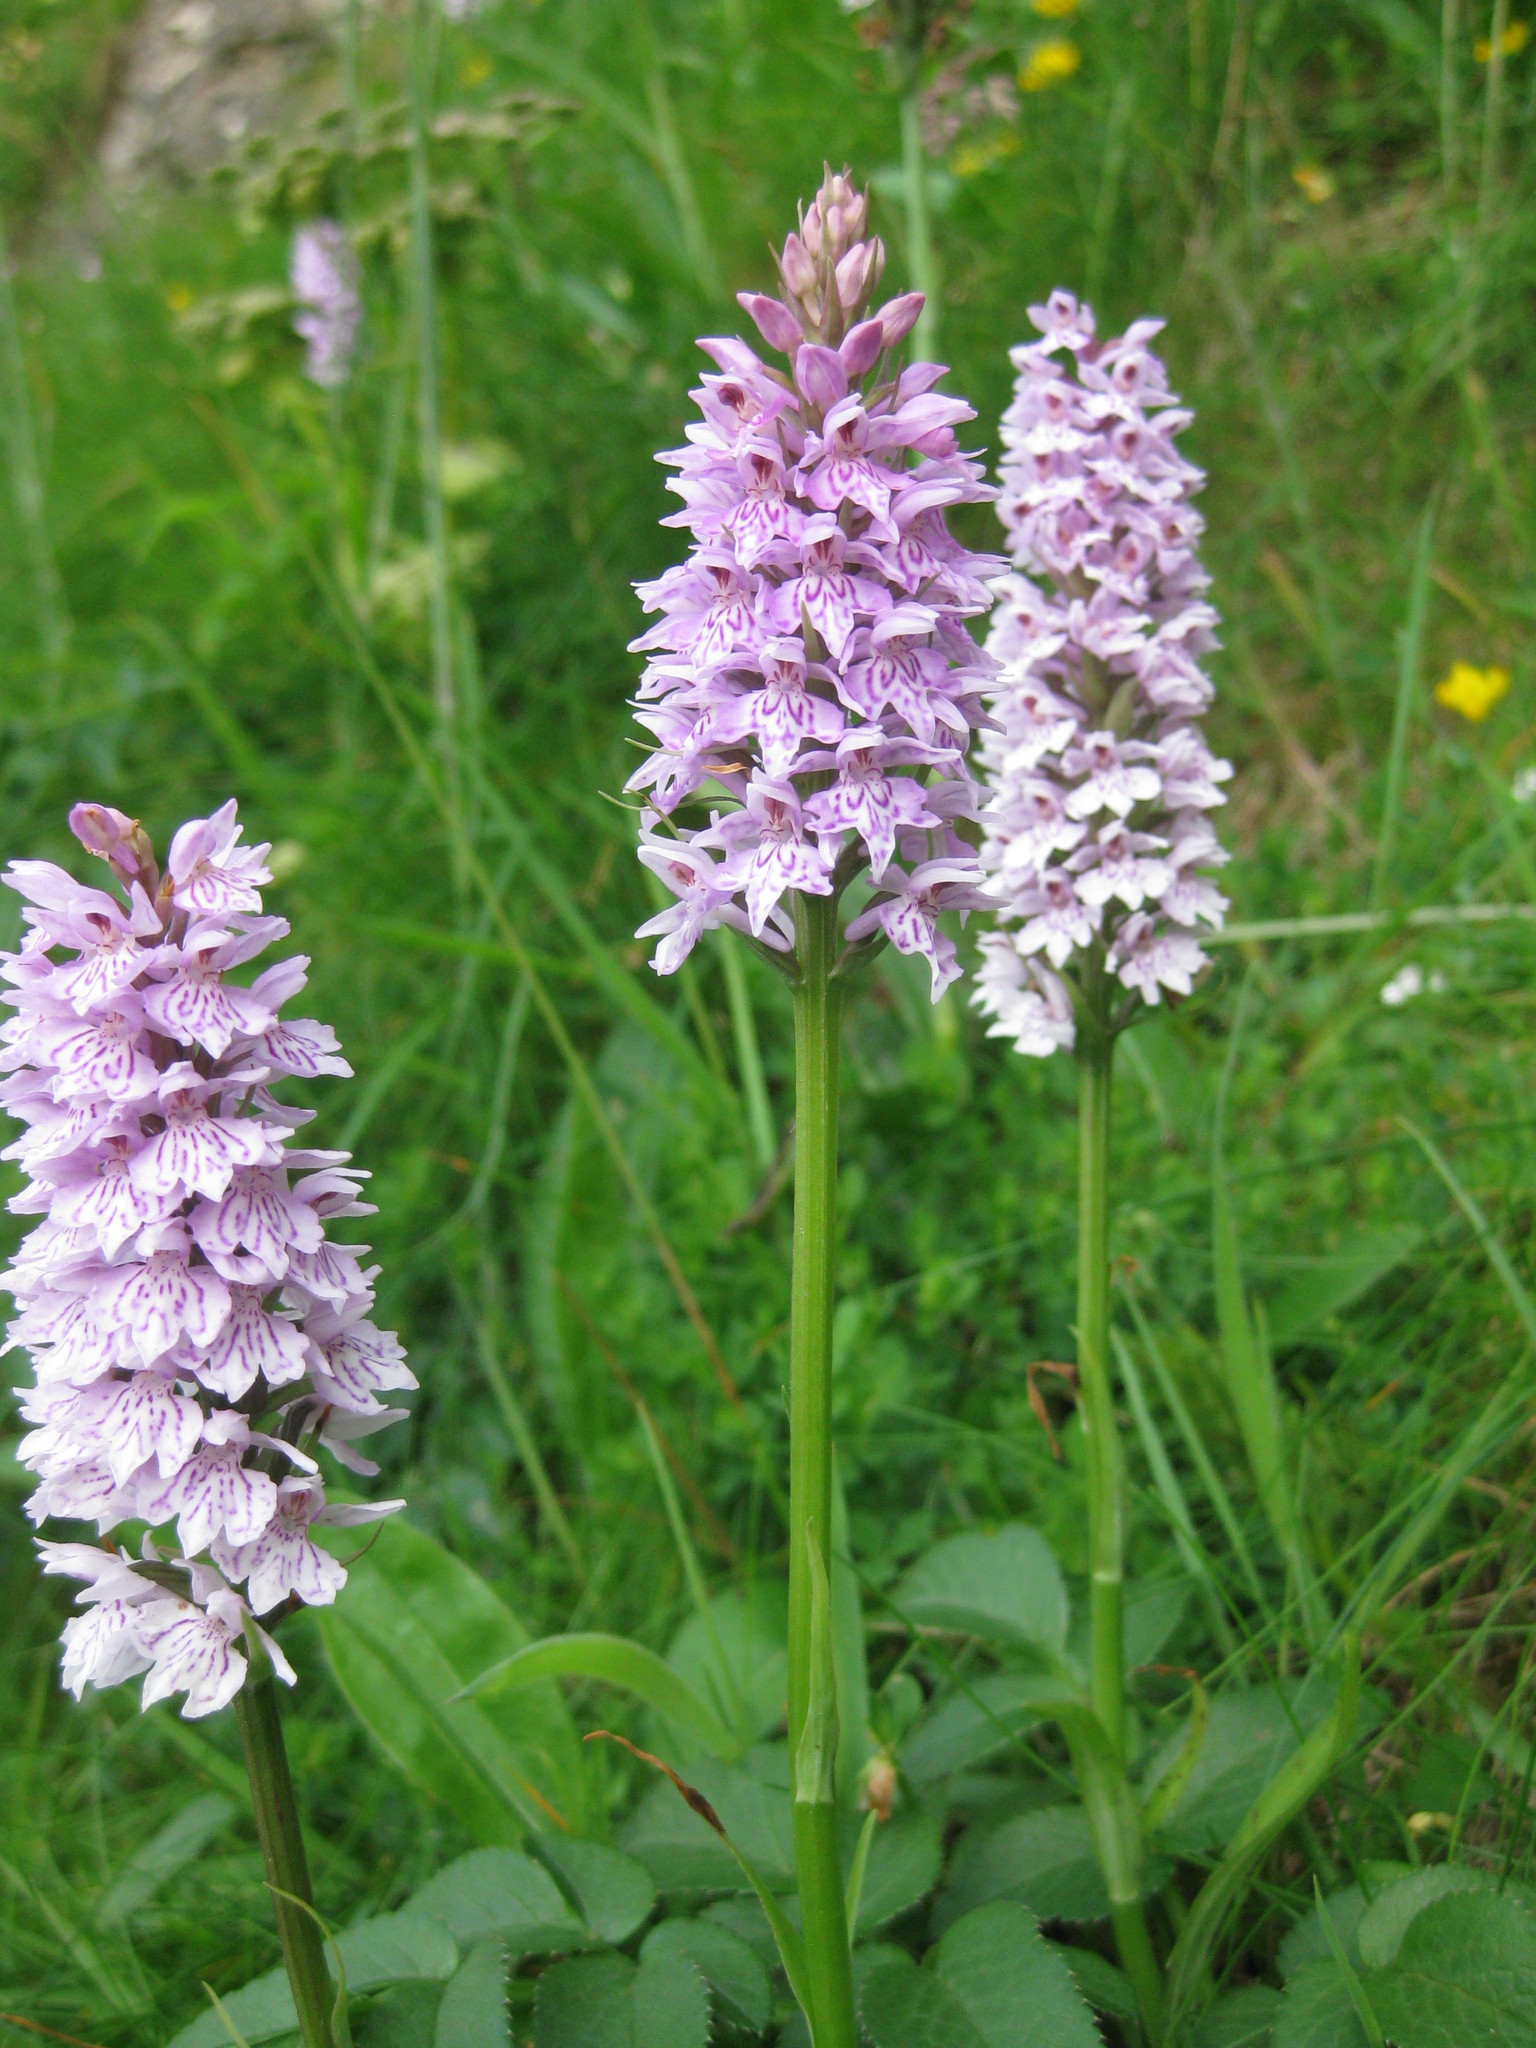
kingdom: Plantae
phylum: Tracheophyta
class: Liliopsida
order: Asparagales
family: Orchidaceae
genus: Dactylorhiza
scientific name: Dactylorhiza maculata
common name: Heath spotted-orchid
